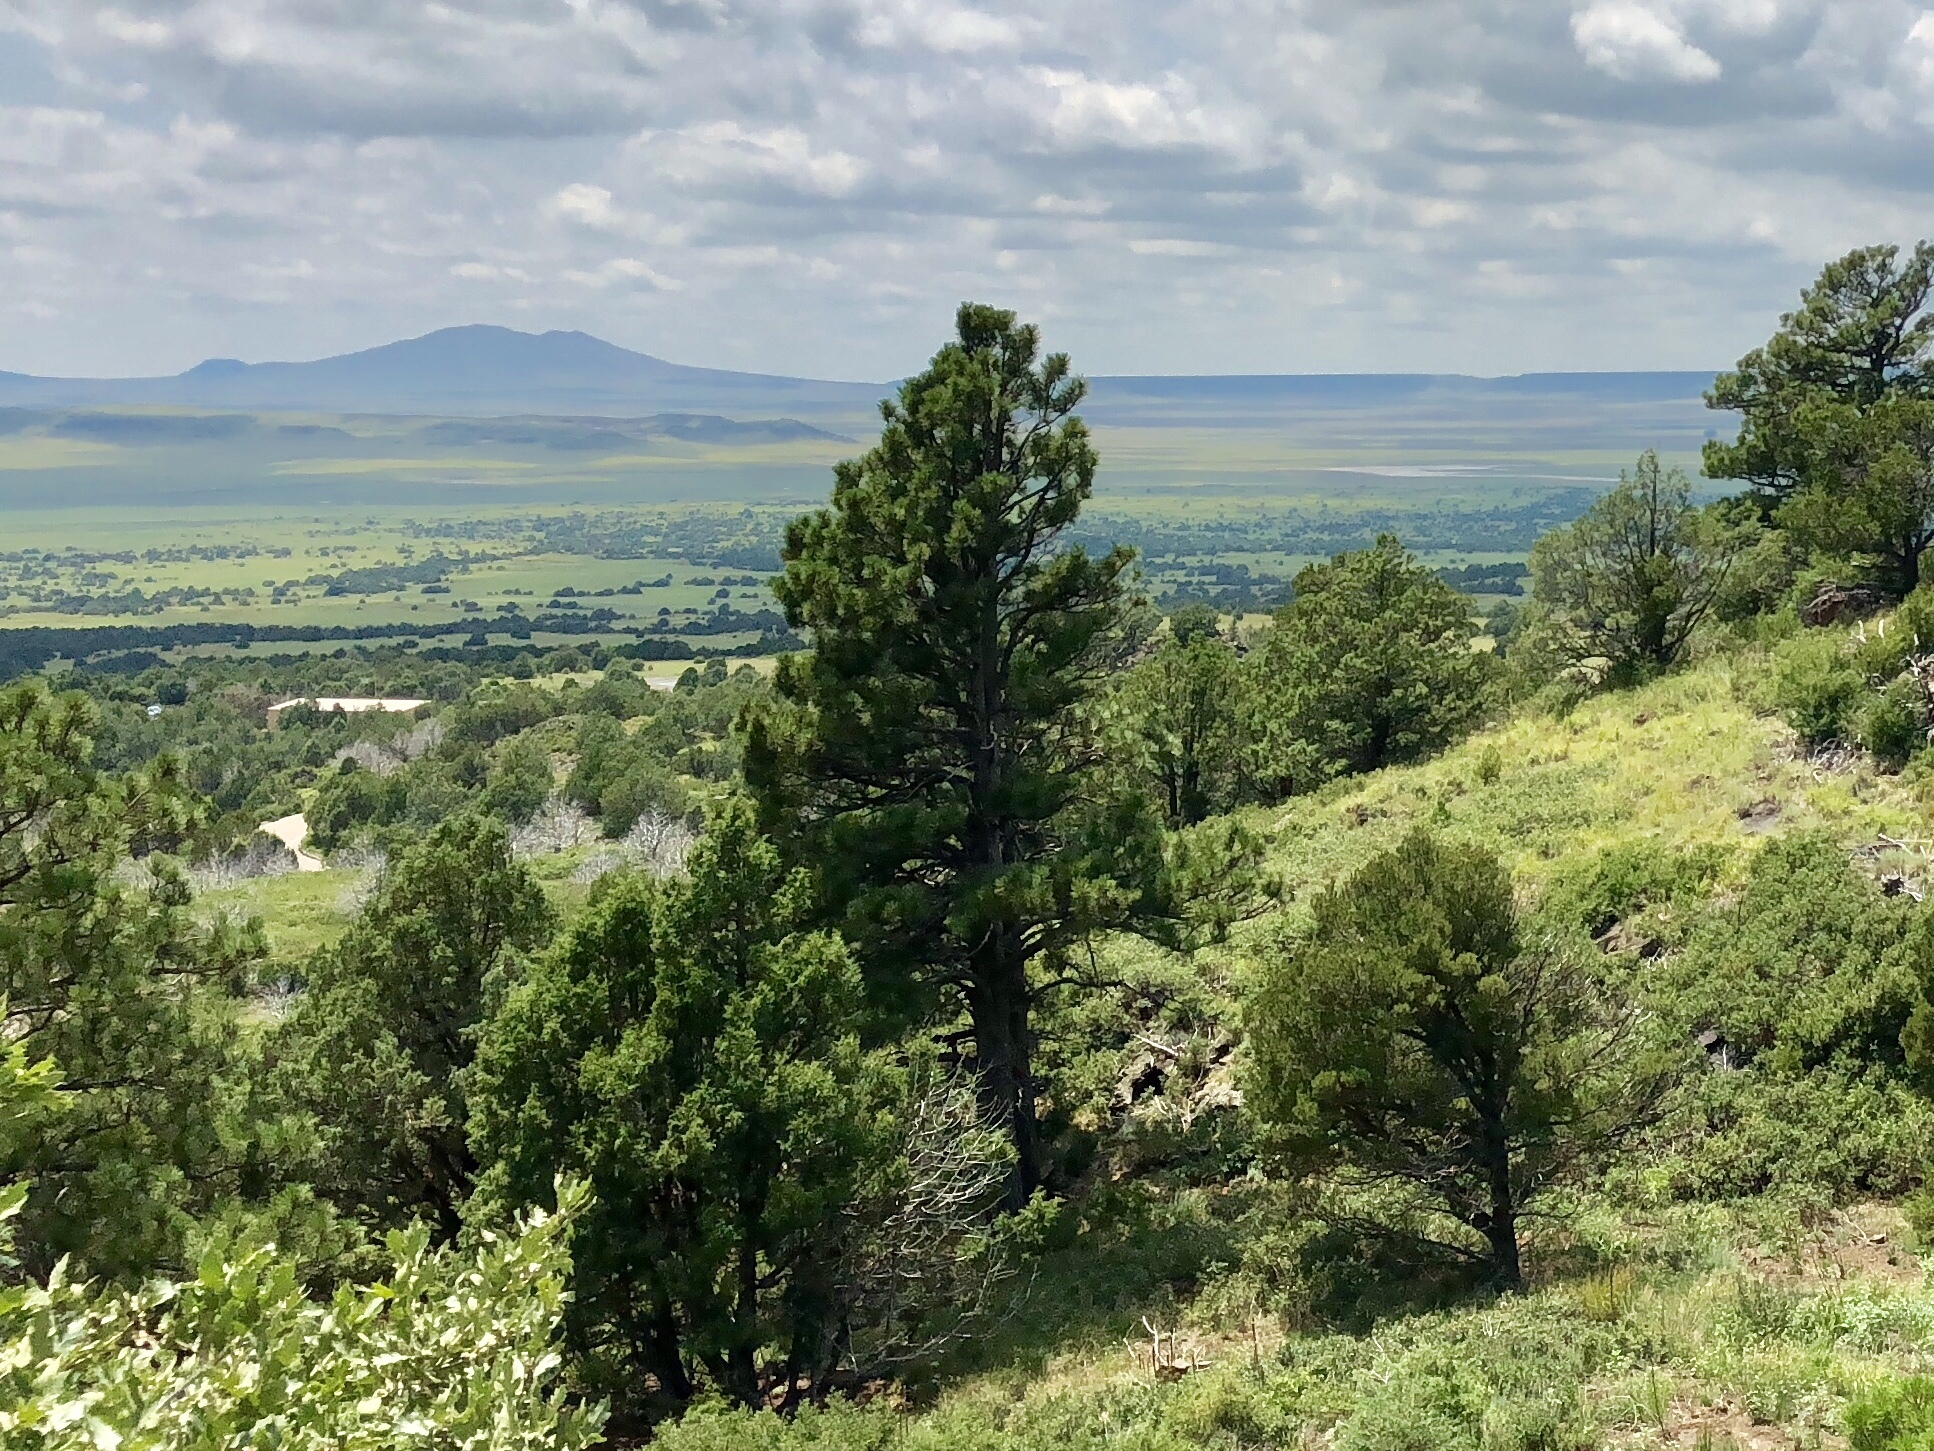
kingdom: Plantae
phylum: Tracheophyta
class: Pinopsida
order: Pinales
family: Pinaceae
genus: Pinus
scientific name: Pinus ponderosa
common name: Western yellow-pine
